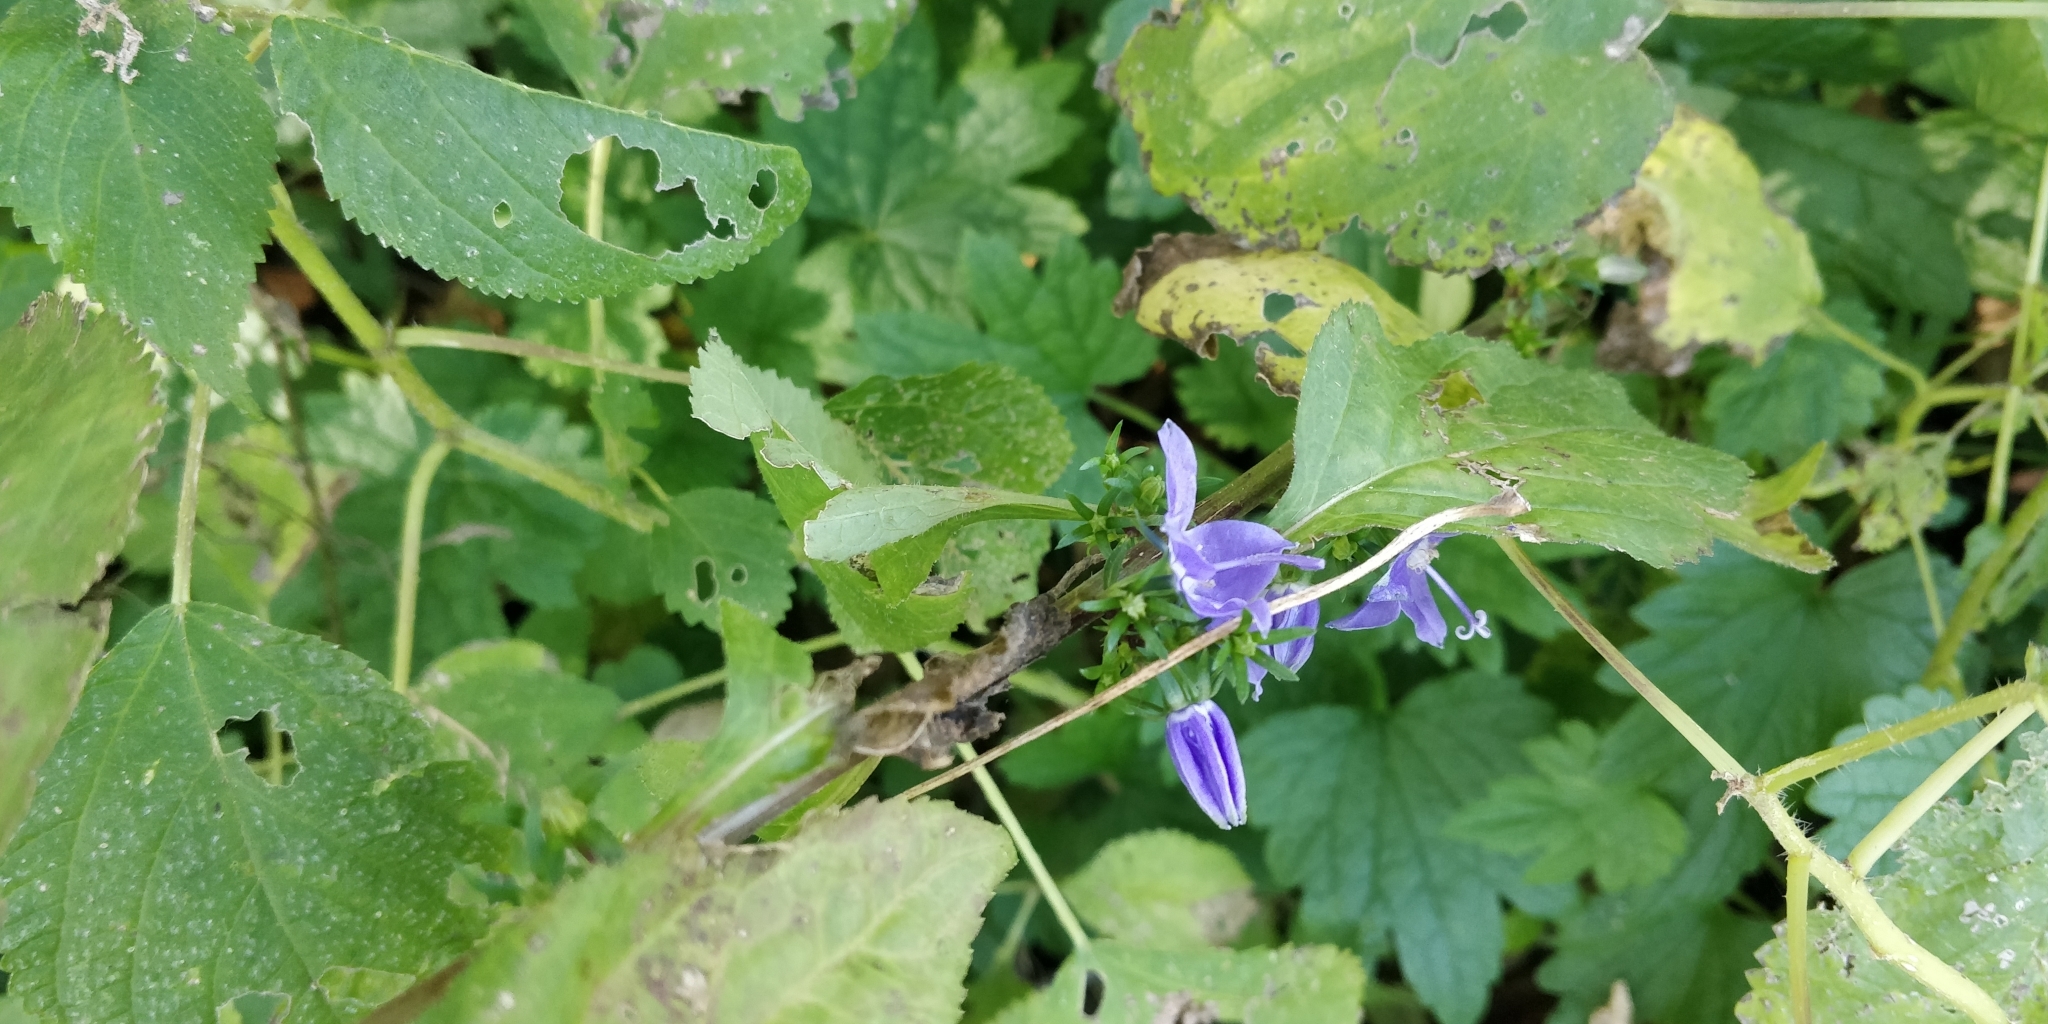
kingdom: Plantae
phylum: Tracheophyta
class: Magnoliopsida
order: Asterales
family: Campanulaceae
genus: Campanulastrum
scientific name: Campanulastrum americanum
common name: American bellflower
